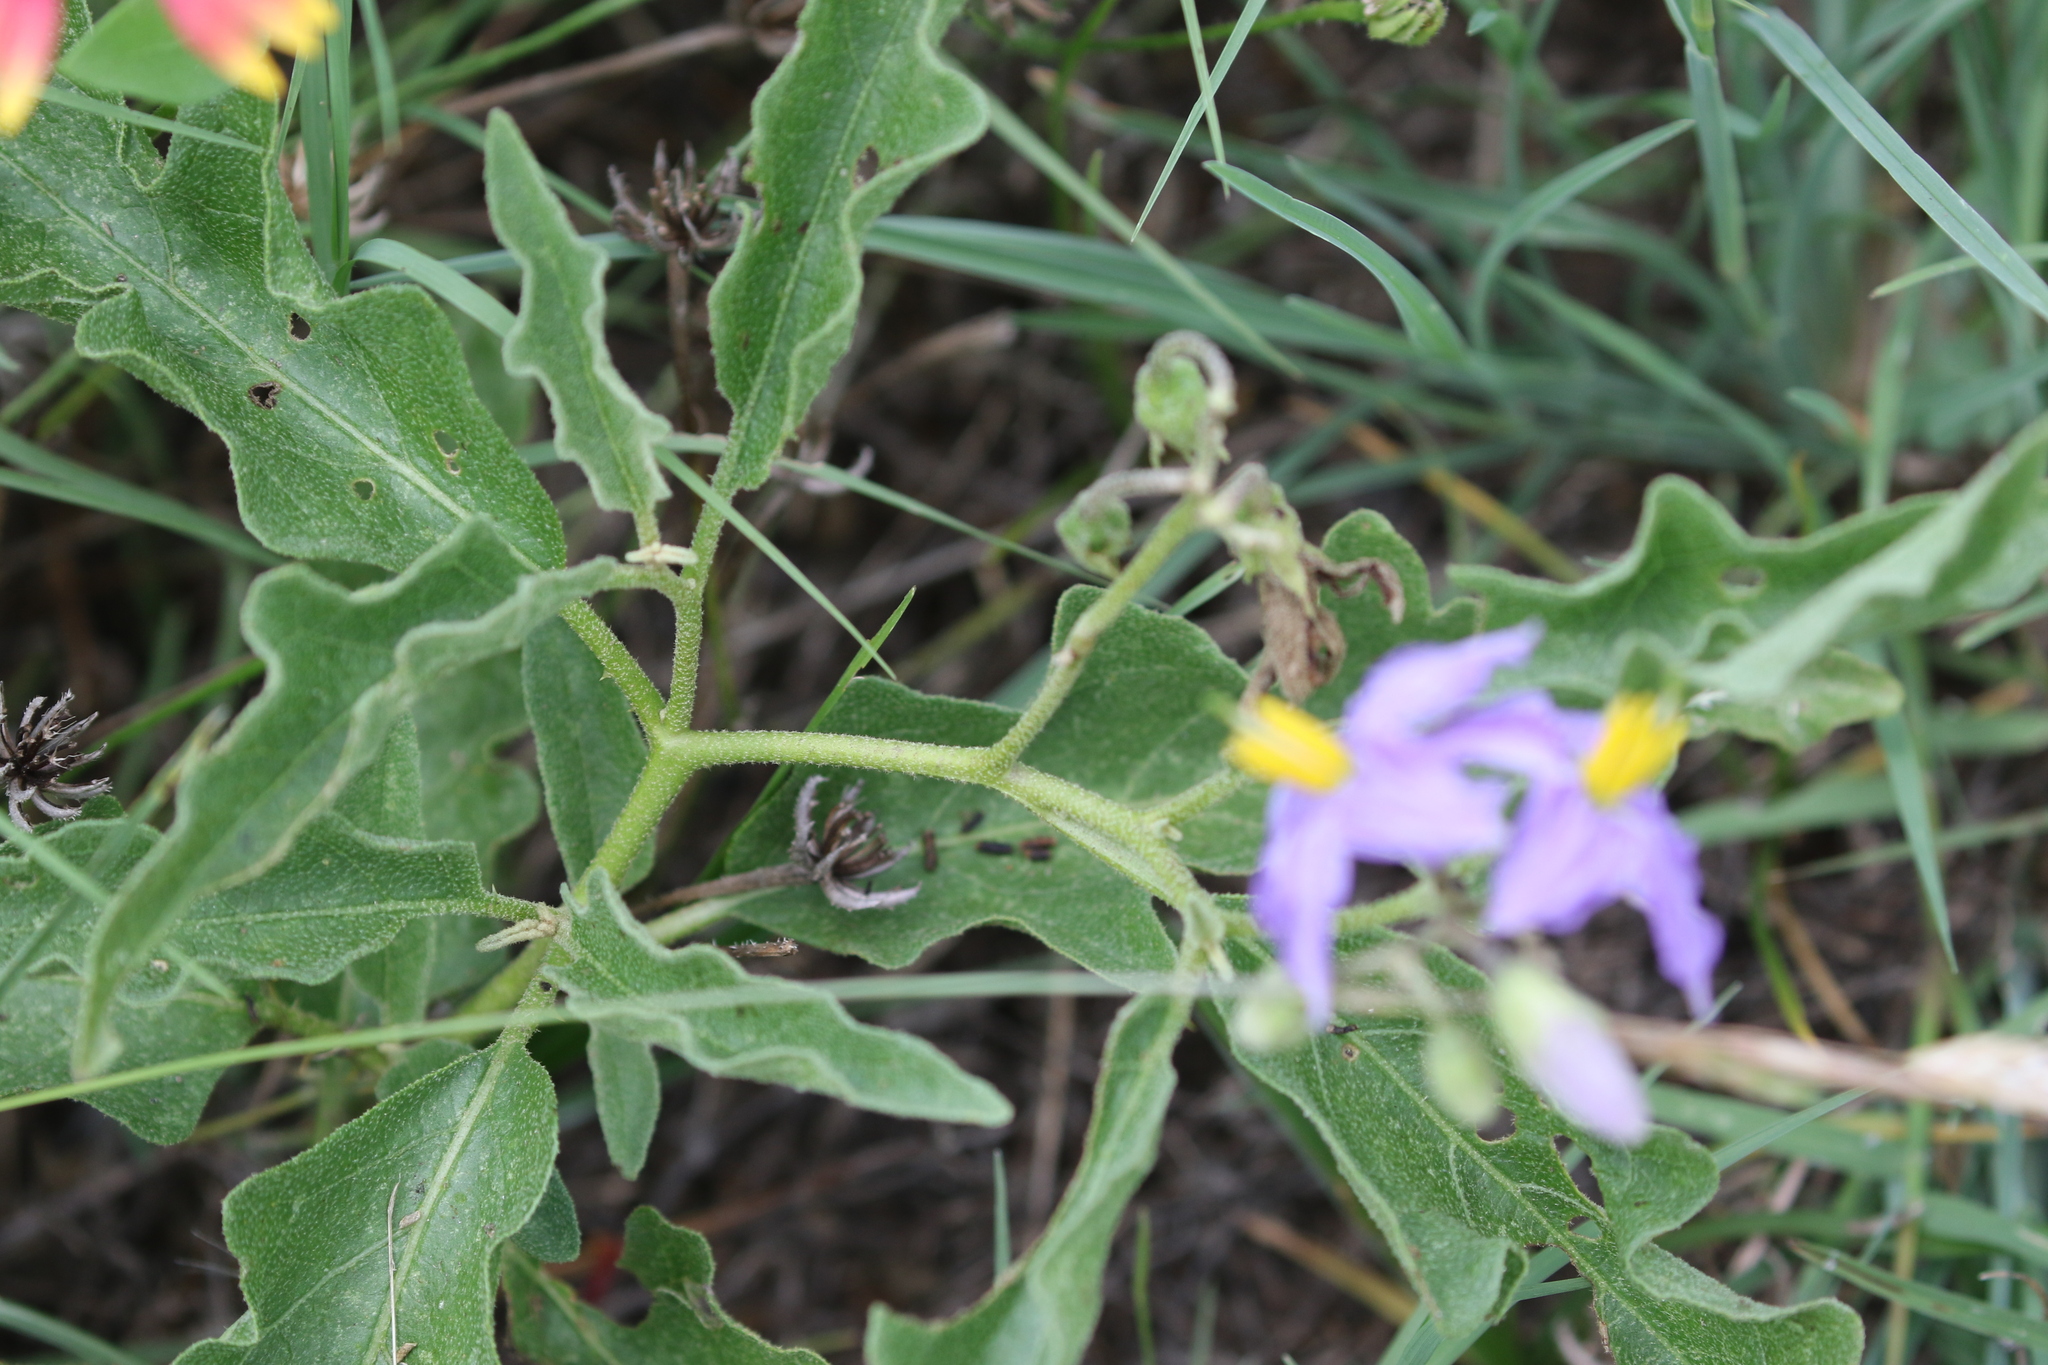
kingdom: Plantae
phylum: Tracheophyta
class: Magnoliopsida
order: Solanales
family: Solanaceae
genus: Solanum
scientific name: Solanum dimidiatum
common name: Carolina horse-nettle
